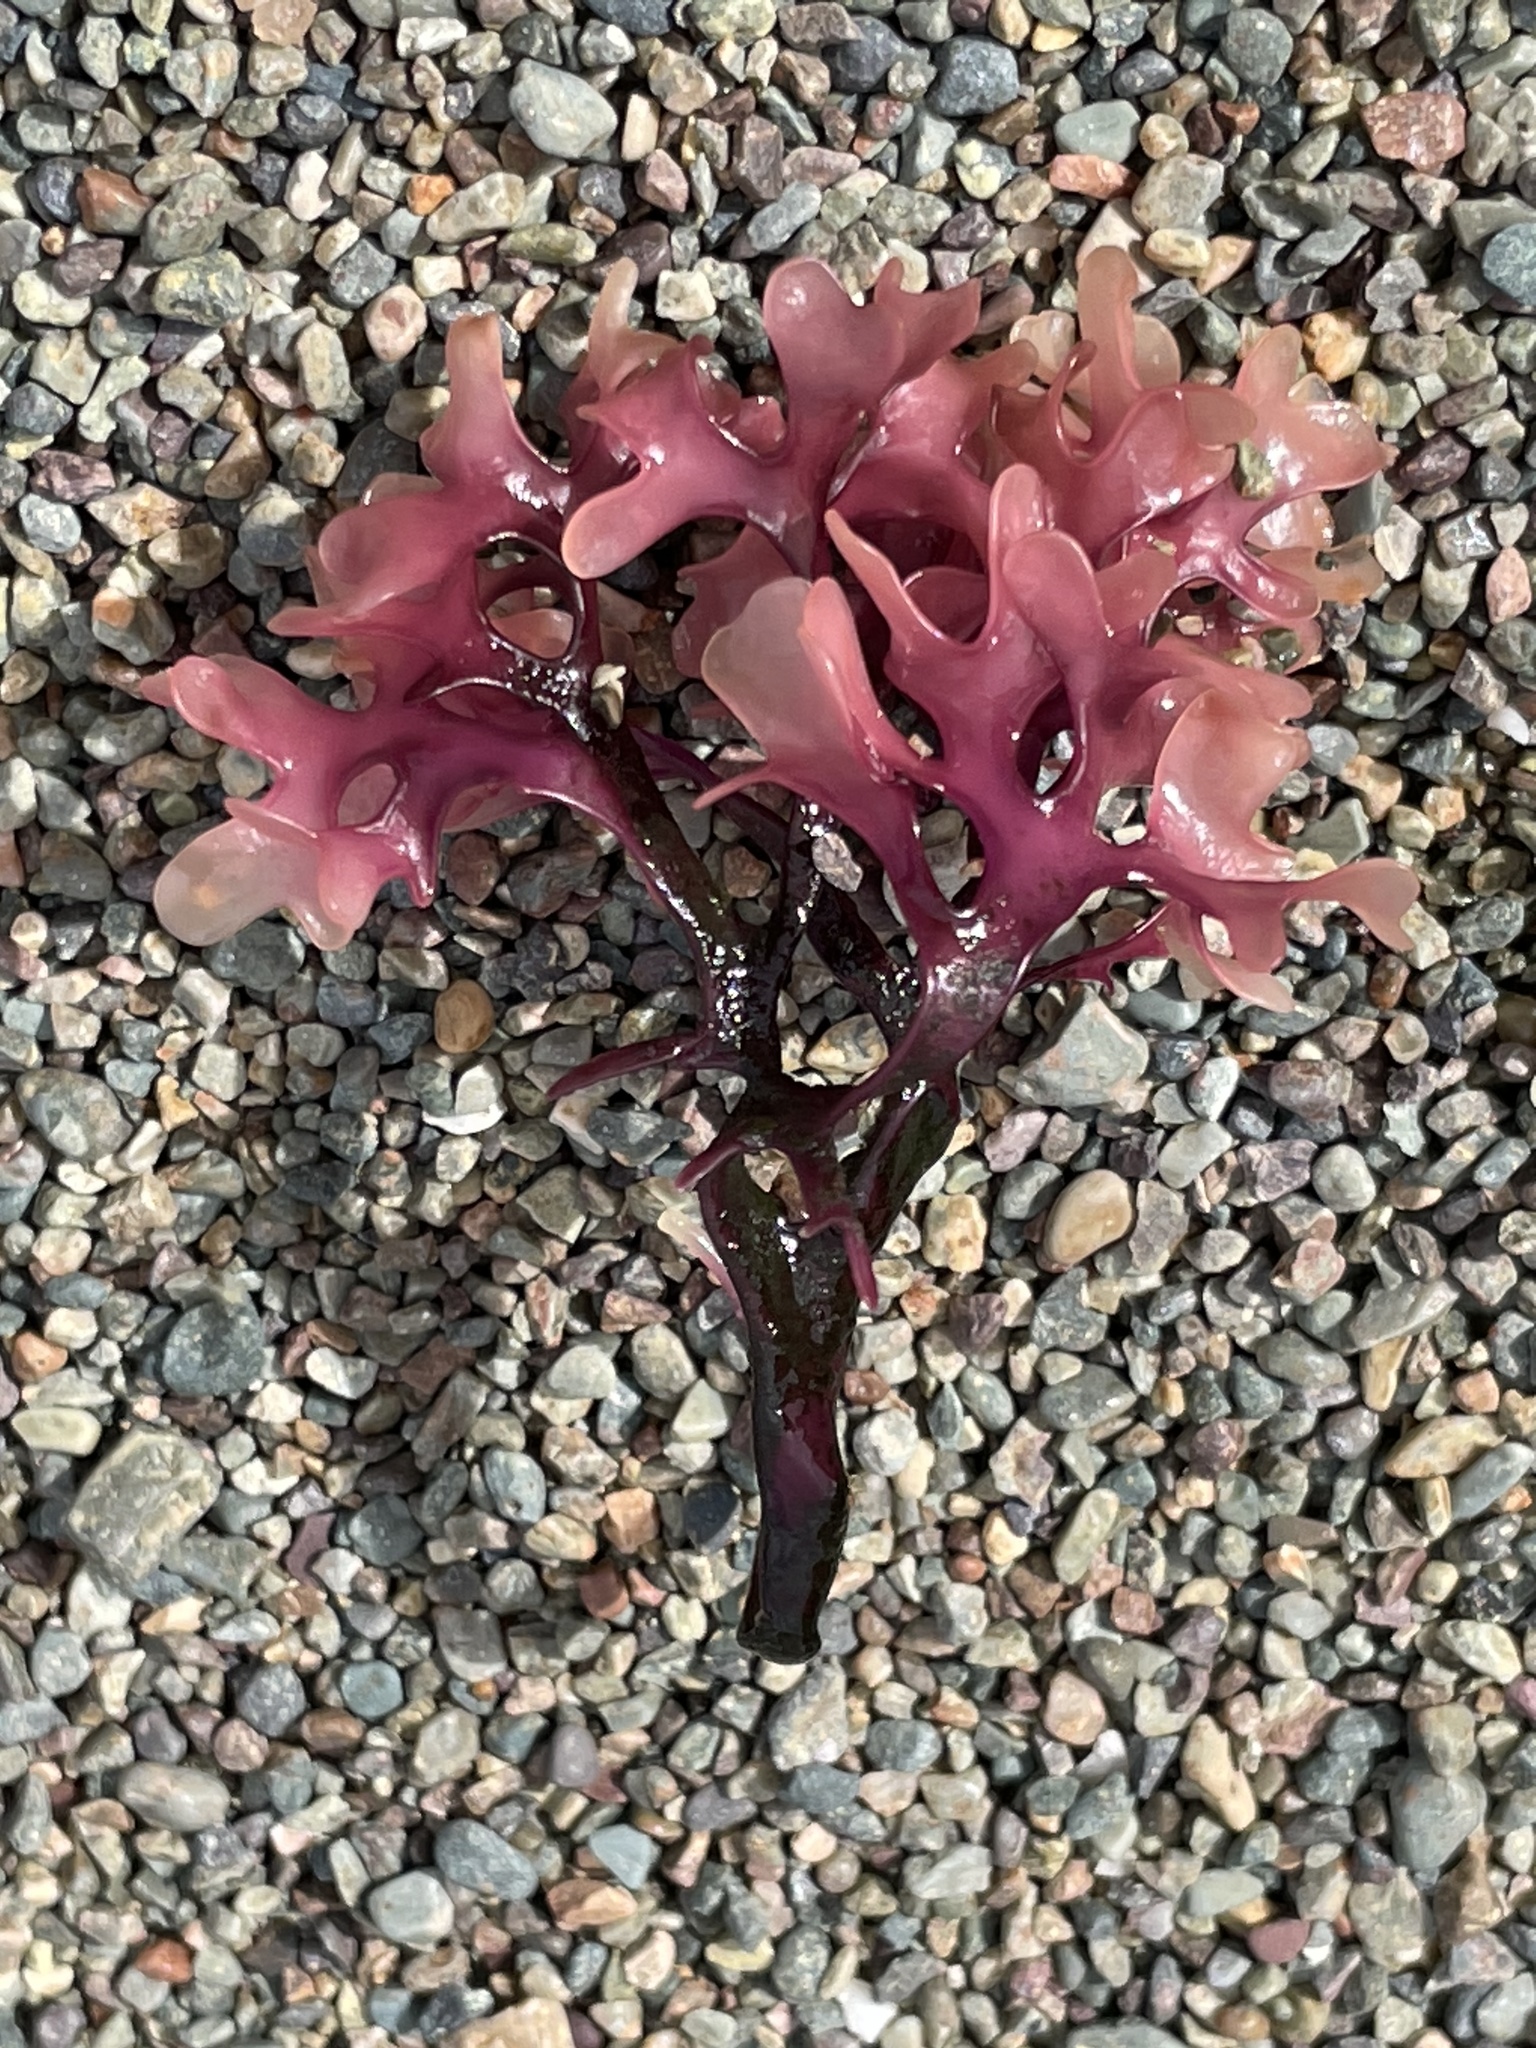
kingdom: Plantae
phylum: Rhodophyta
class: Florideophyceae
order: Gigartinales
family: Gigartinaceae
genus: Chondrus
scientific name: Chondrus crispus
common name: Carrageen
